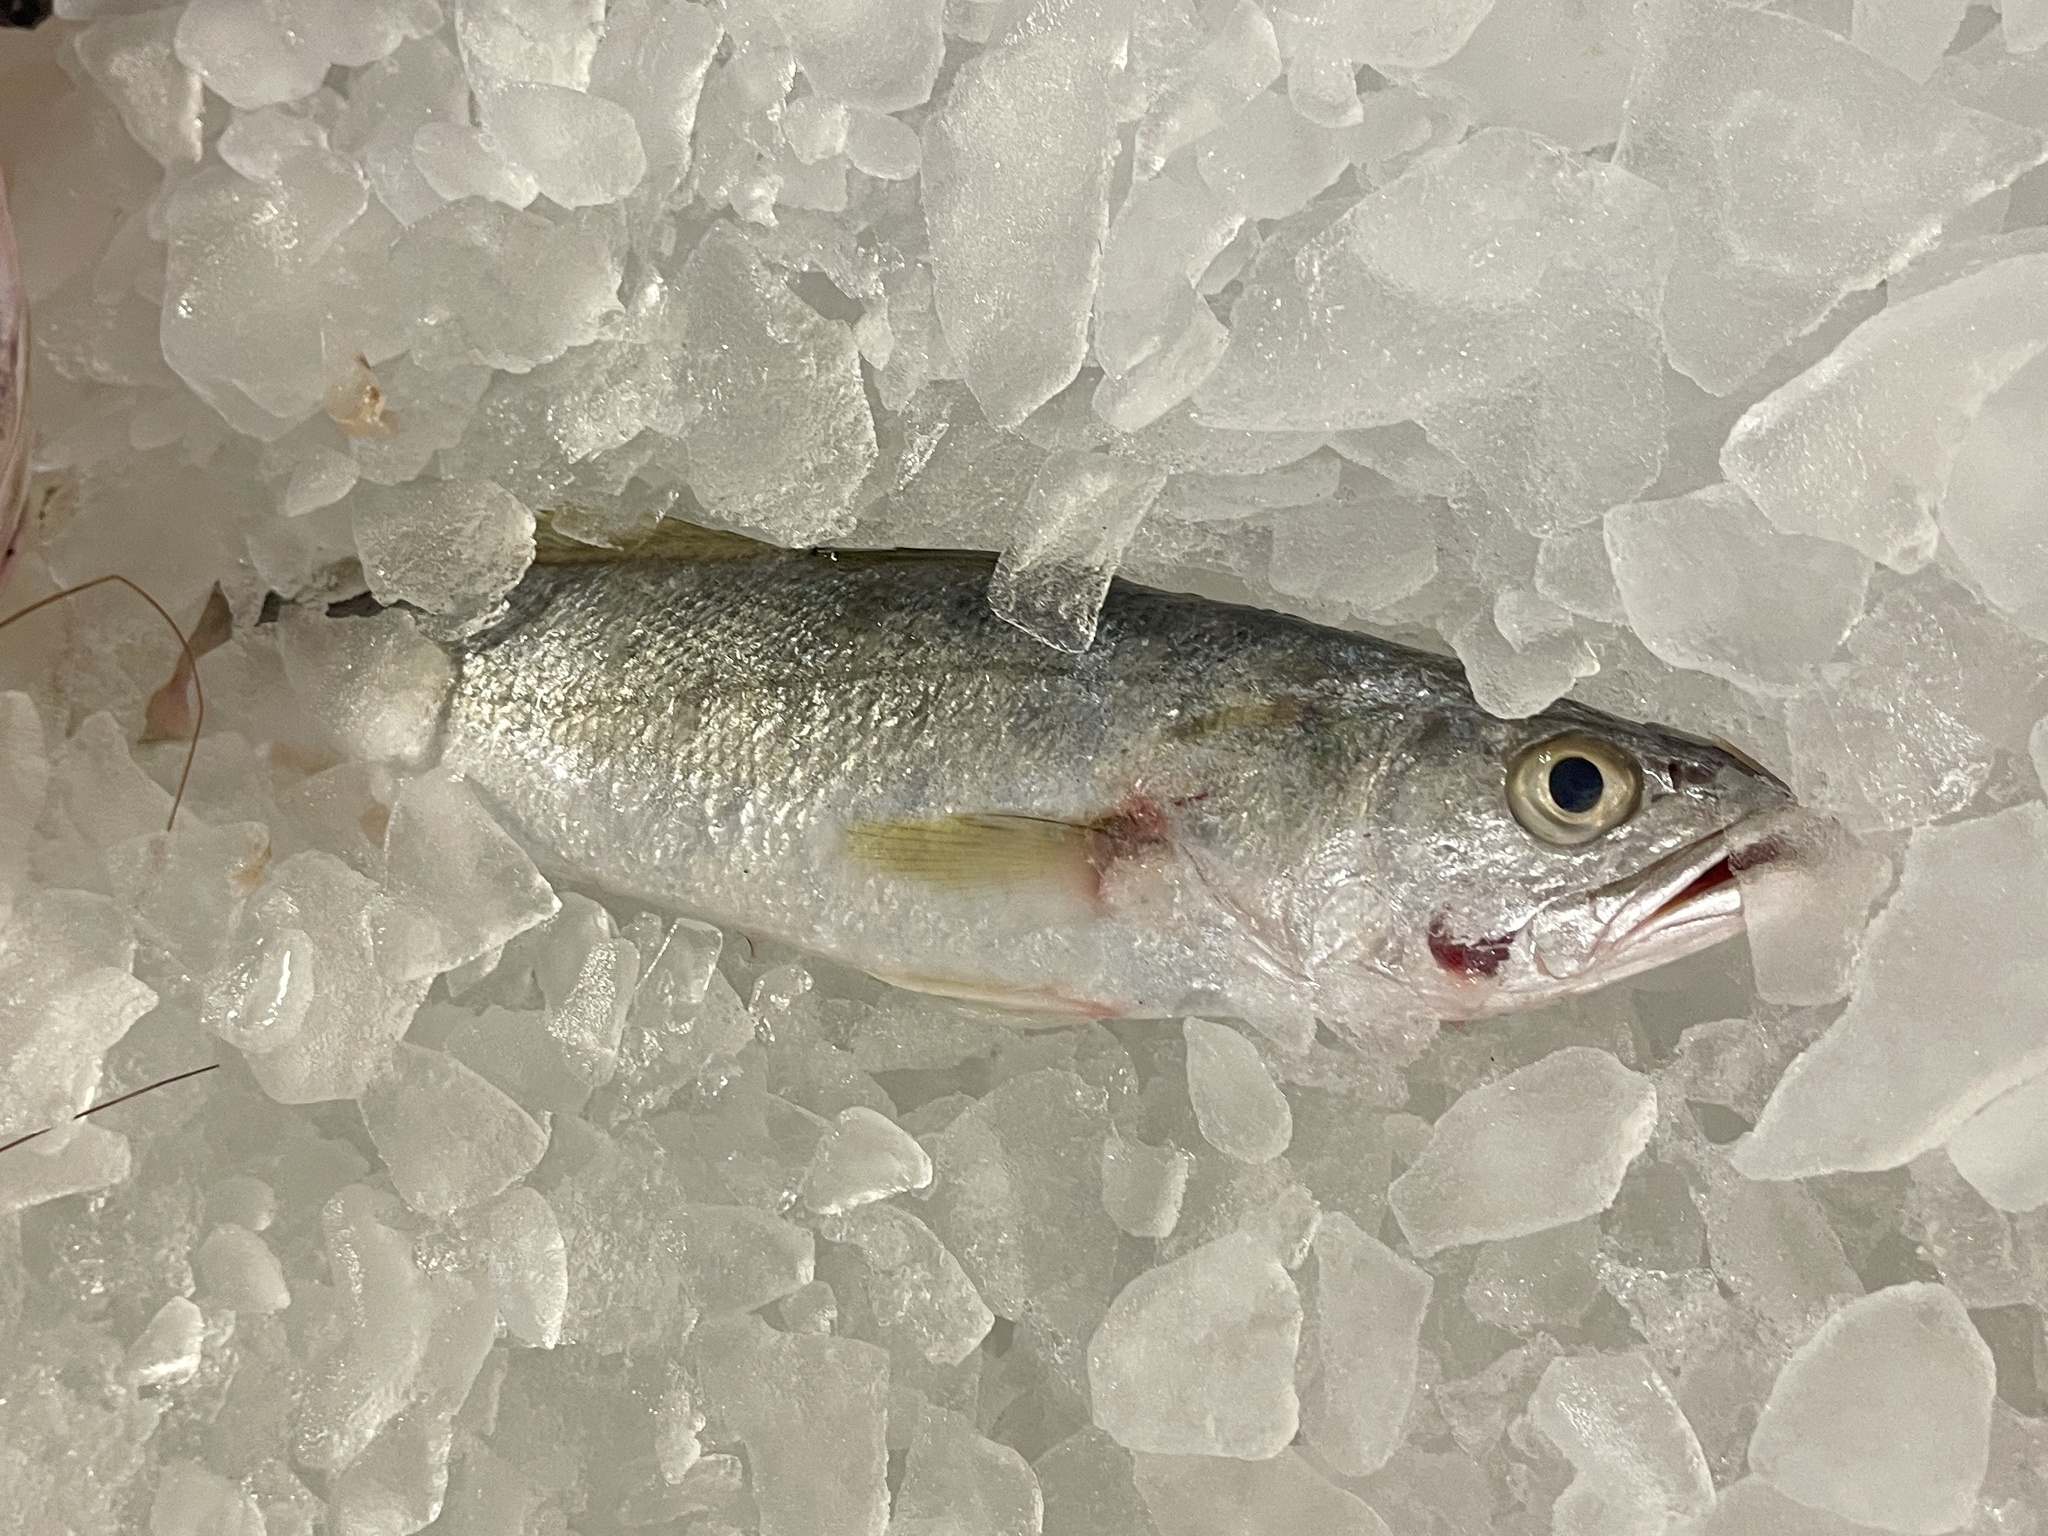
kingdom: Animalia
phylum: Chordata
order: Perciformes
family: Sciaenidae
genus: Cynoscion
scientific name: Cynoscion arenarius
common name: Sand seatrout
